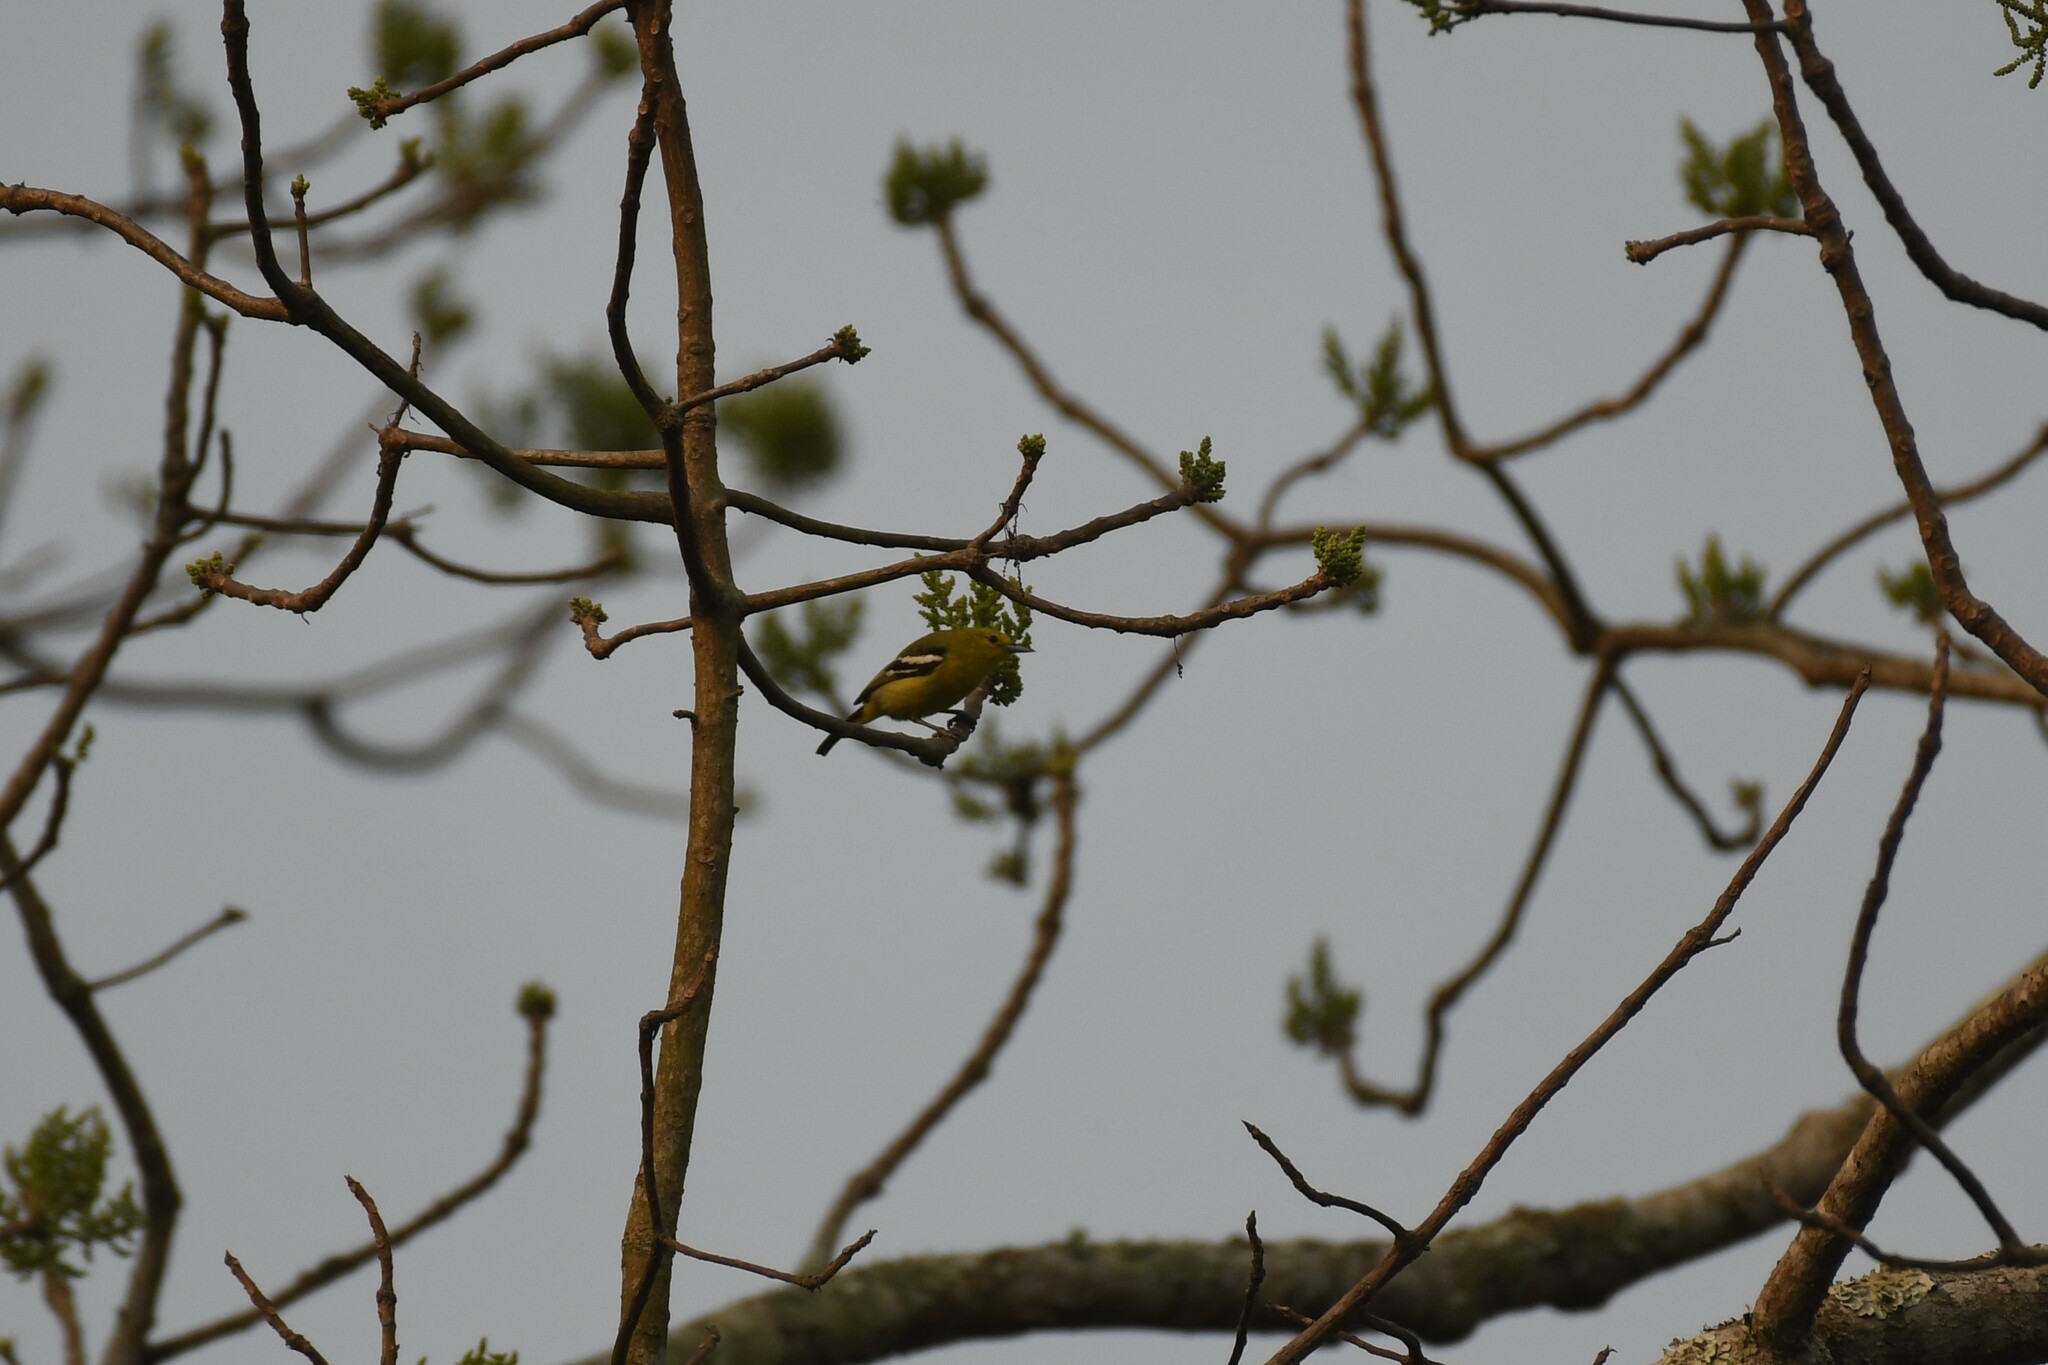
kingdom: Animalia
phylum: Chordata
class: Aves
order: Passeriformes
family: Aegithinidae
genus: Aegithina
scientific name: Aegithina tiphia
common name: Common iora
